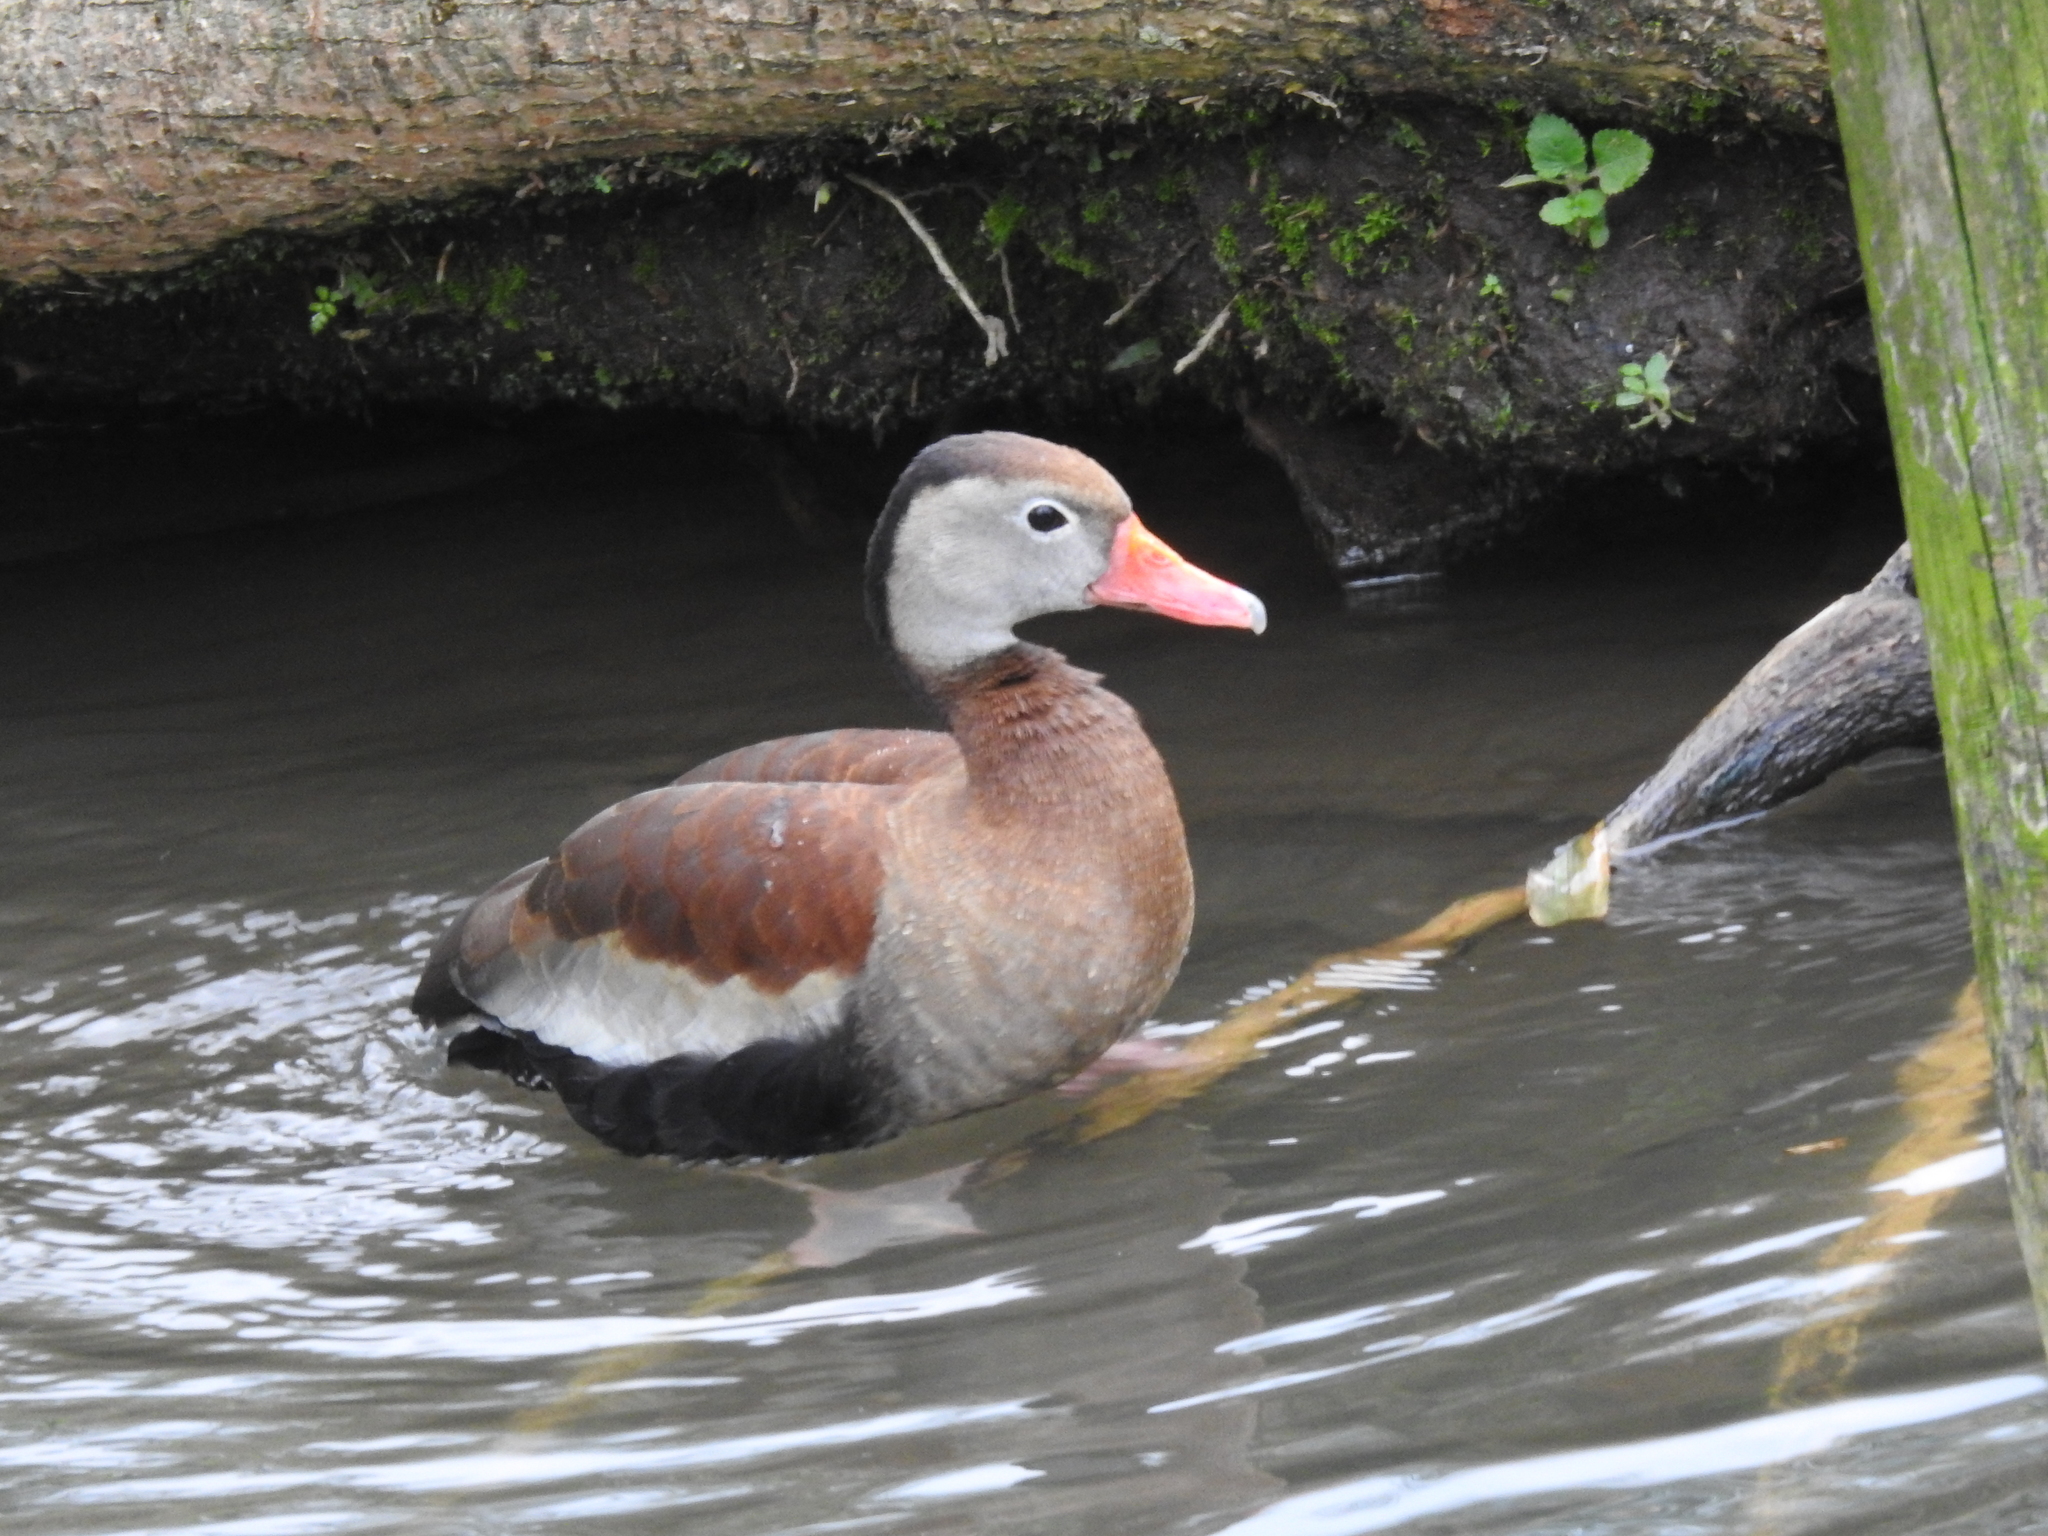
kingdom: Animalia
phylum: Chordata
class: Aves
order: Anseriformes
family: Anatidae
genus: Dendrocygna
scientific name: Dendrocygna autumnalis
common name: Black-bellied whistling duck
